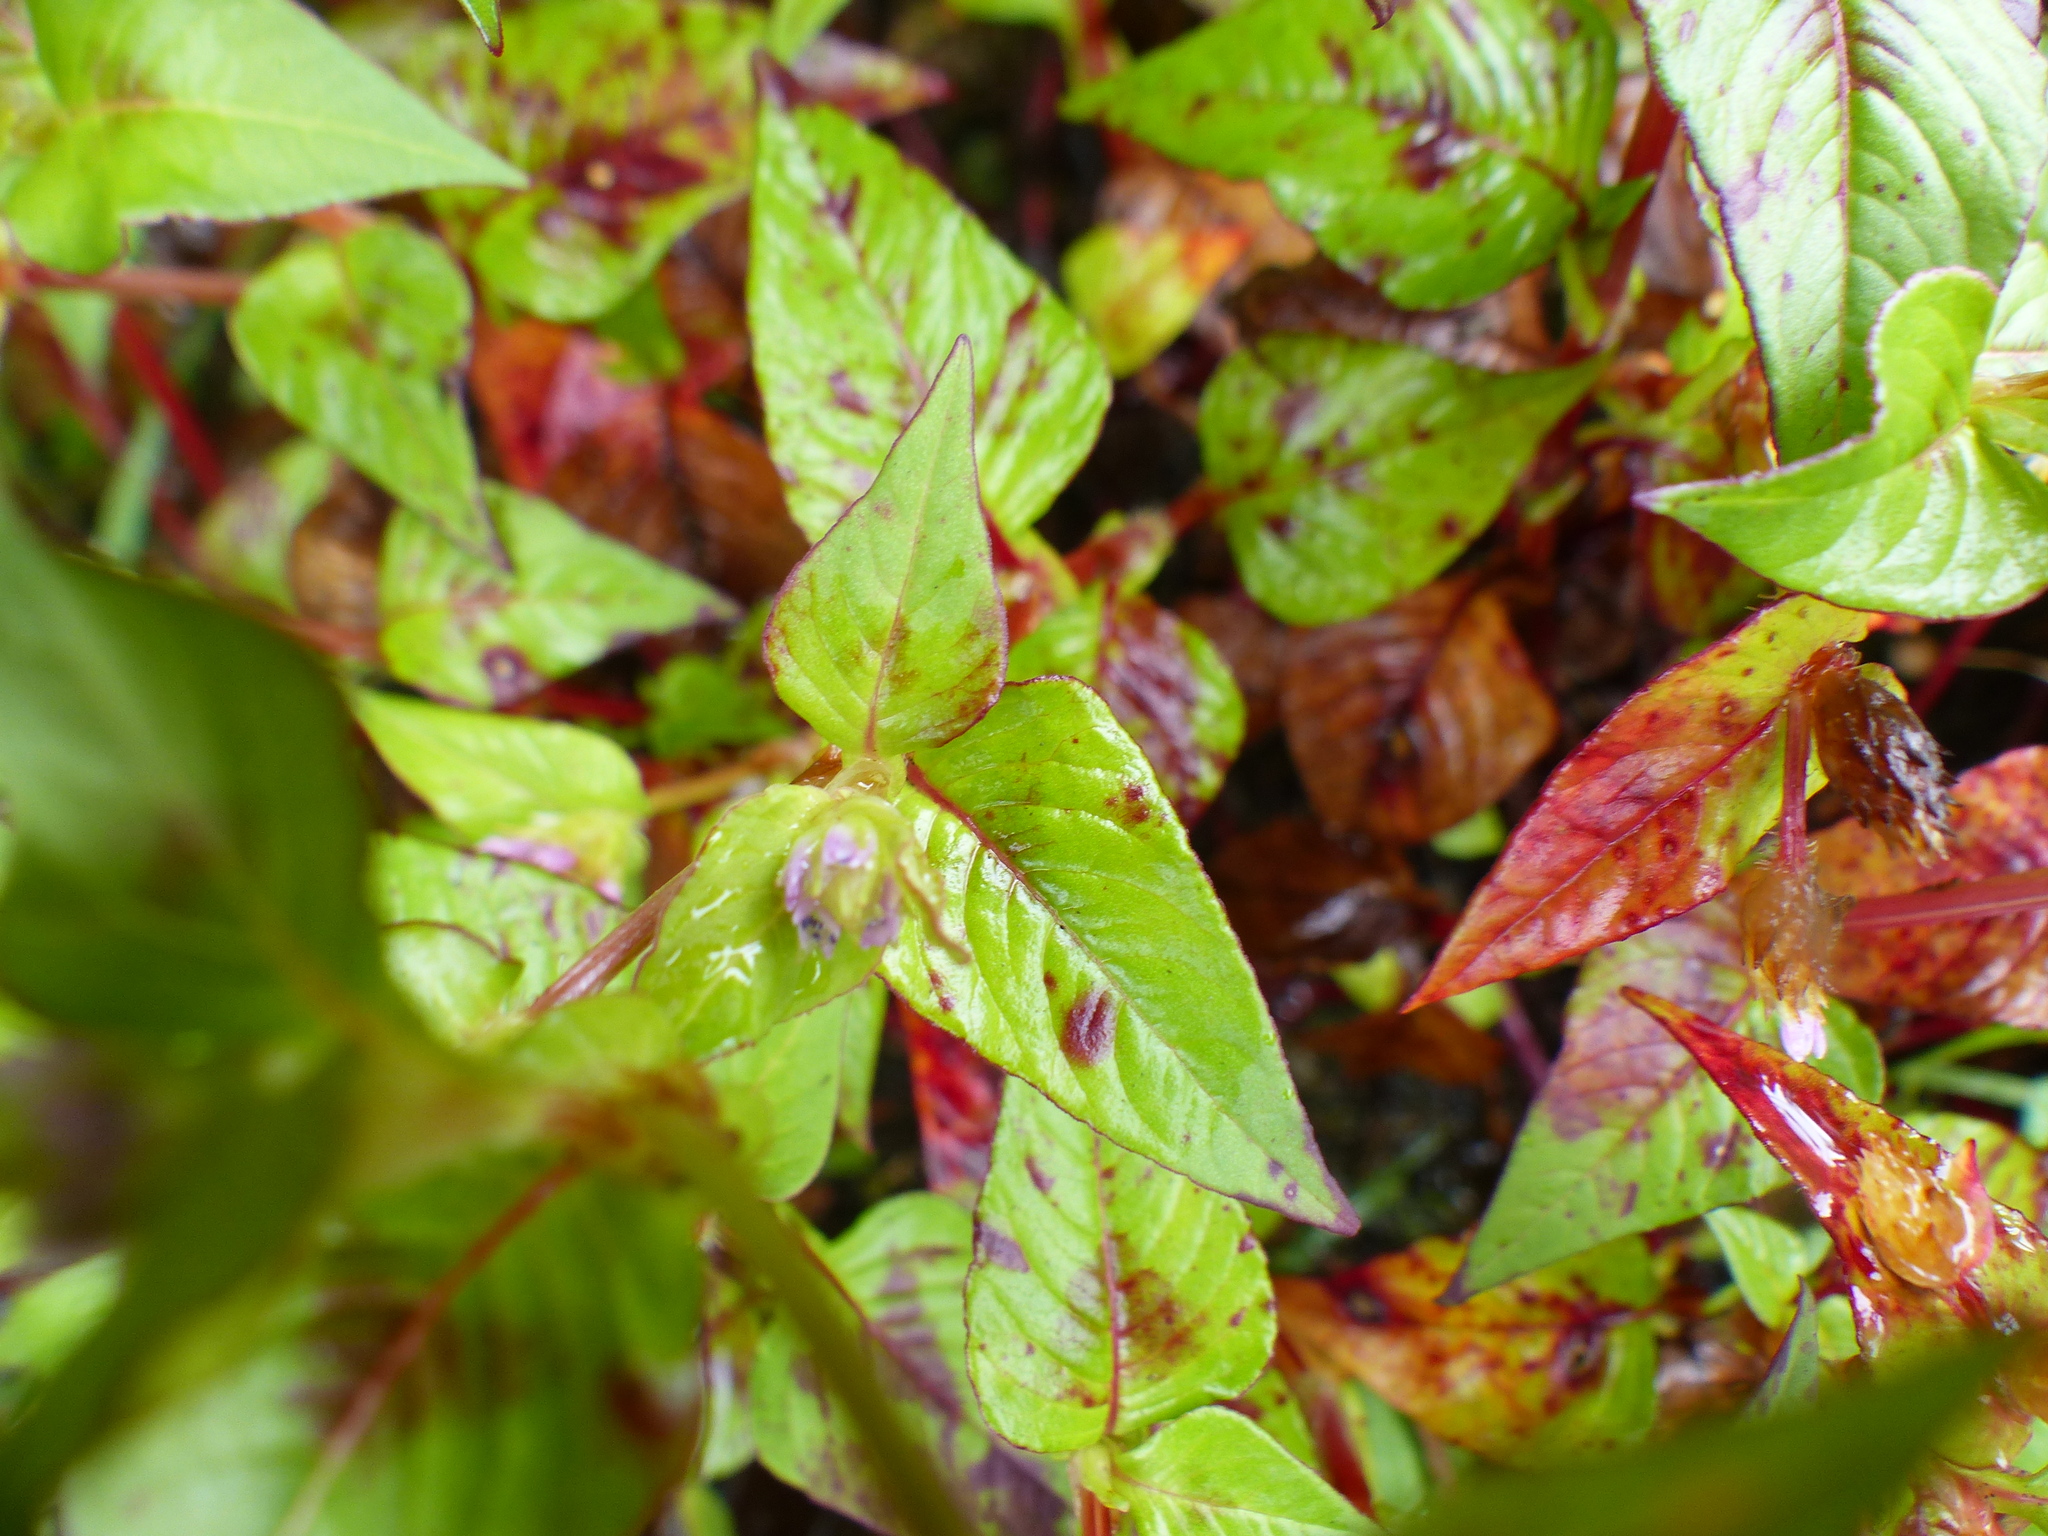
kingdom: Plantae
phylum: Tracheophyta
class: Magnoliopsida
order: Caryophyllales
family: Polygonaceae
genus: Persicaria
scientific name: Persicaria nepalensis
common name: Nepal persicaria
